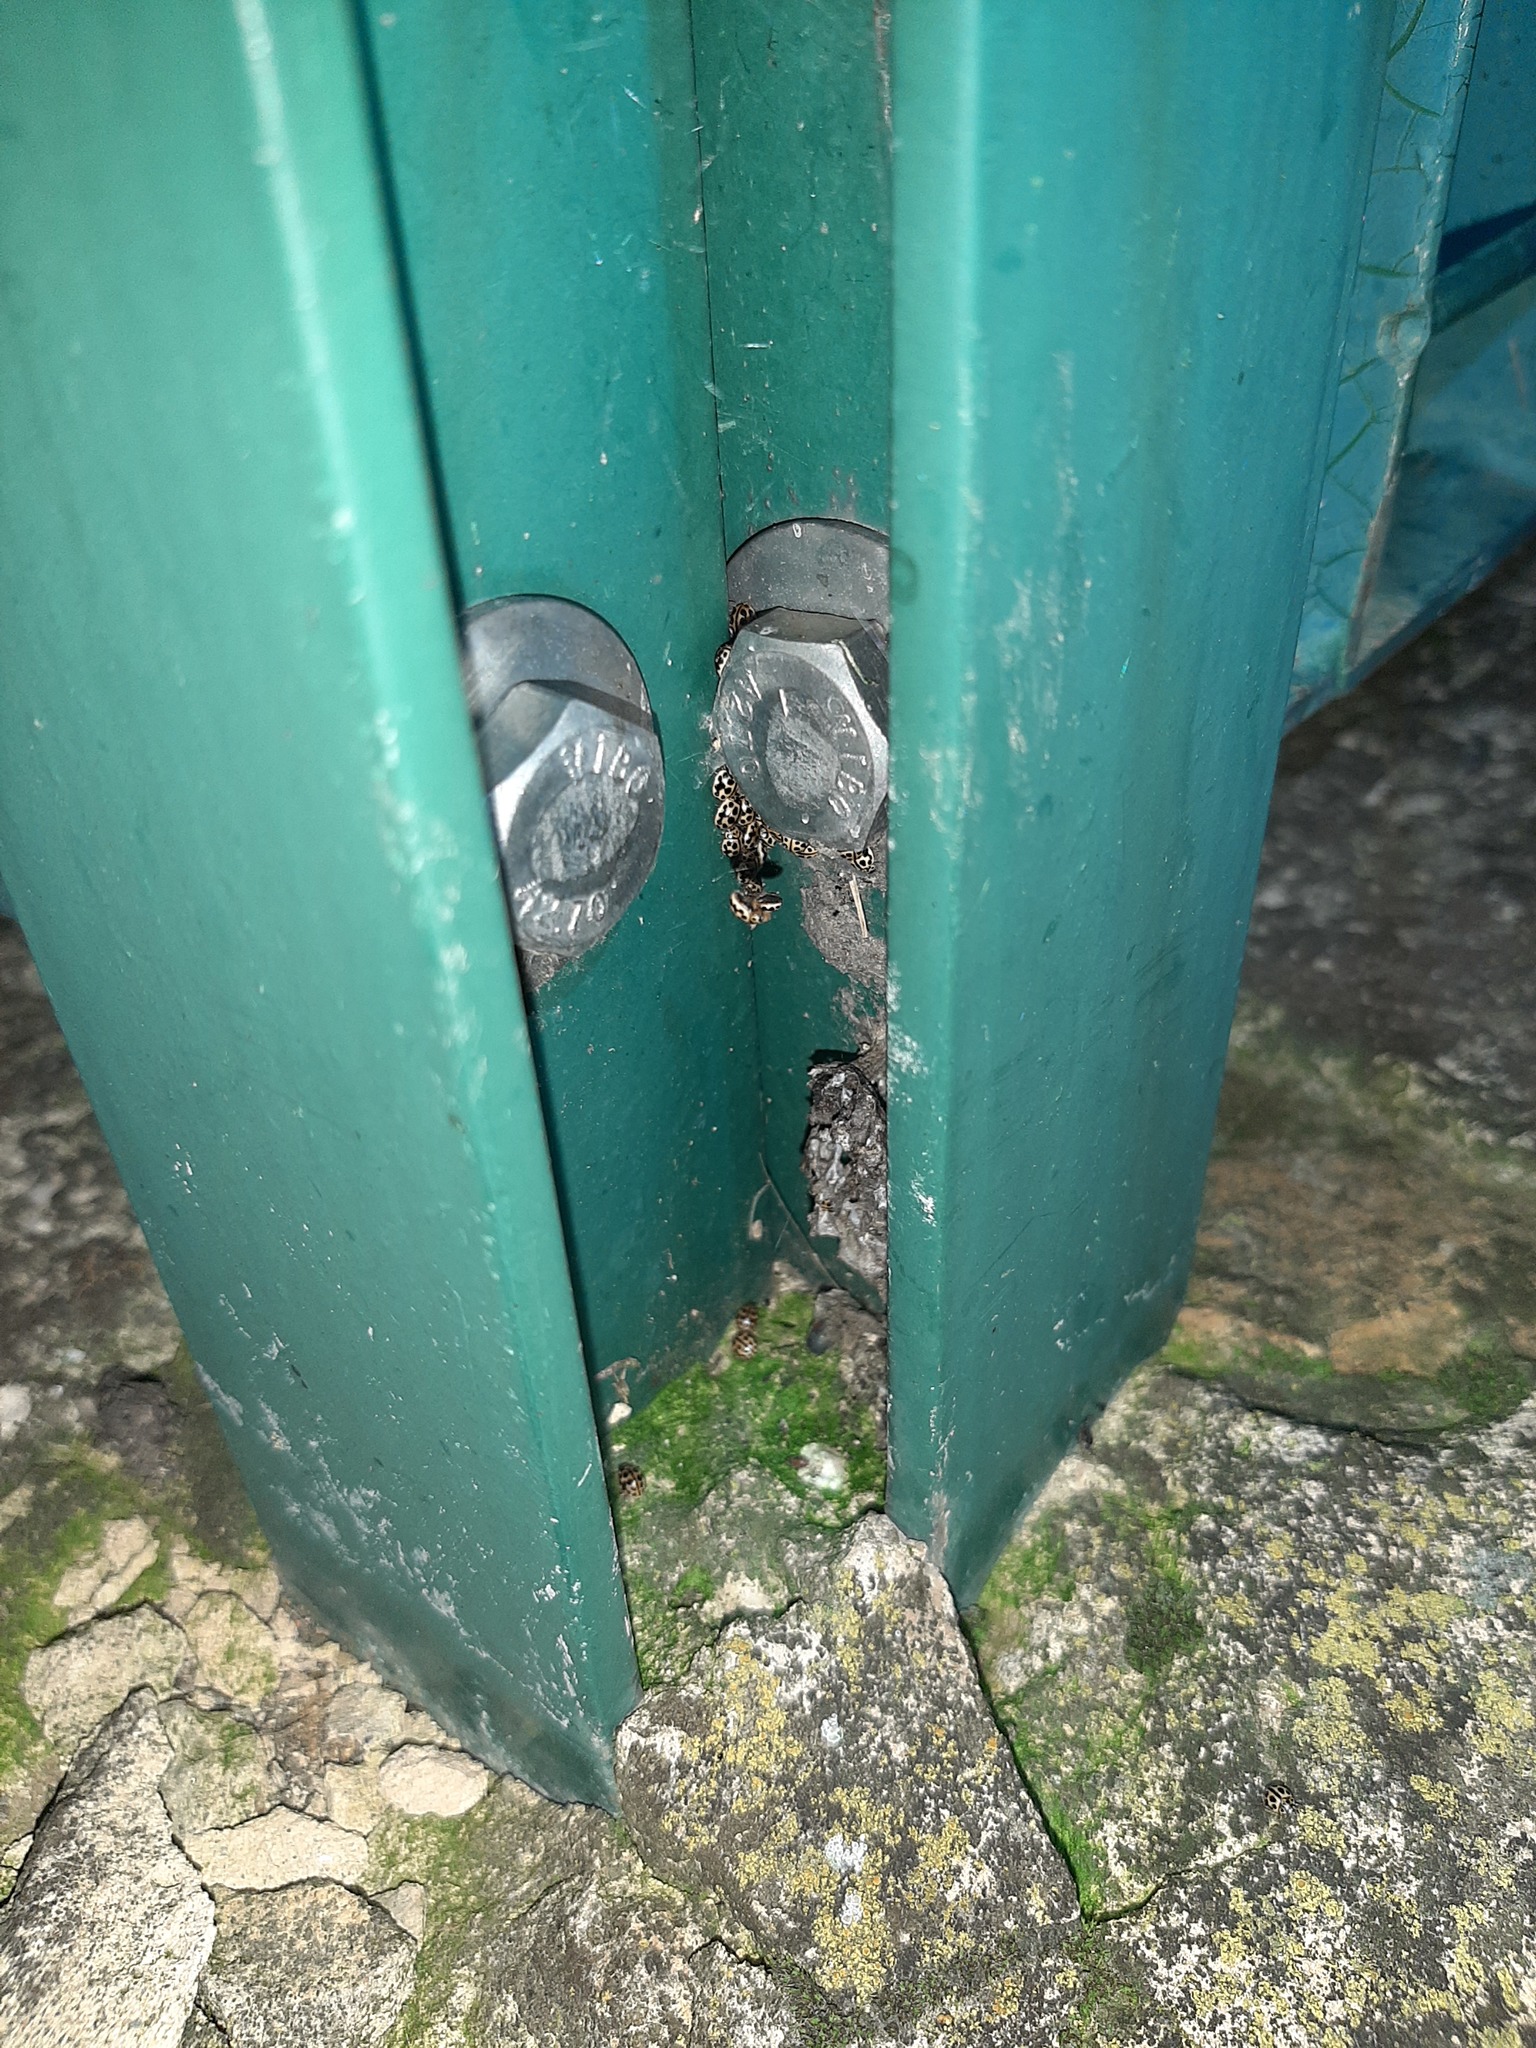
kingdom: Animalia
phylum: Arthropoda
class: Insecta
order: Coleoptera
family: Coccinellidae
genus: Tytthaspis
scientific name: Tytthaspis sedecimpunctata
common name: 16-spot ladybird
